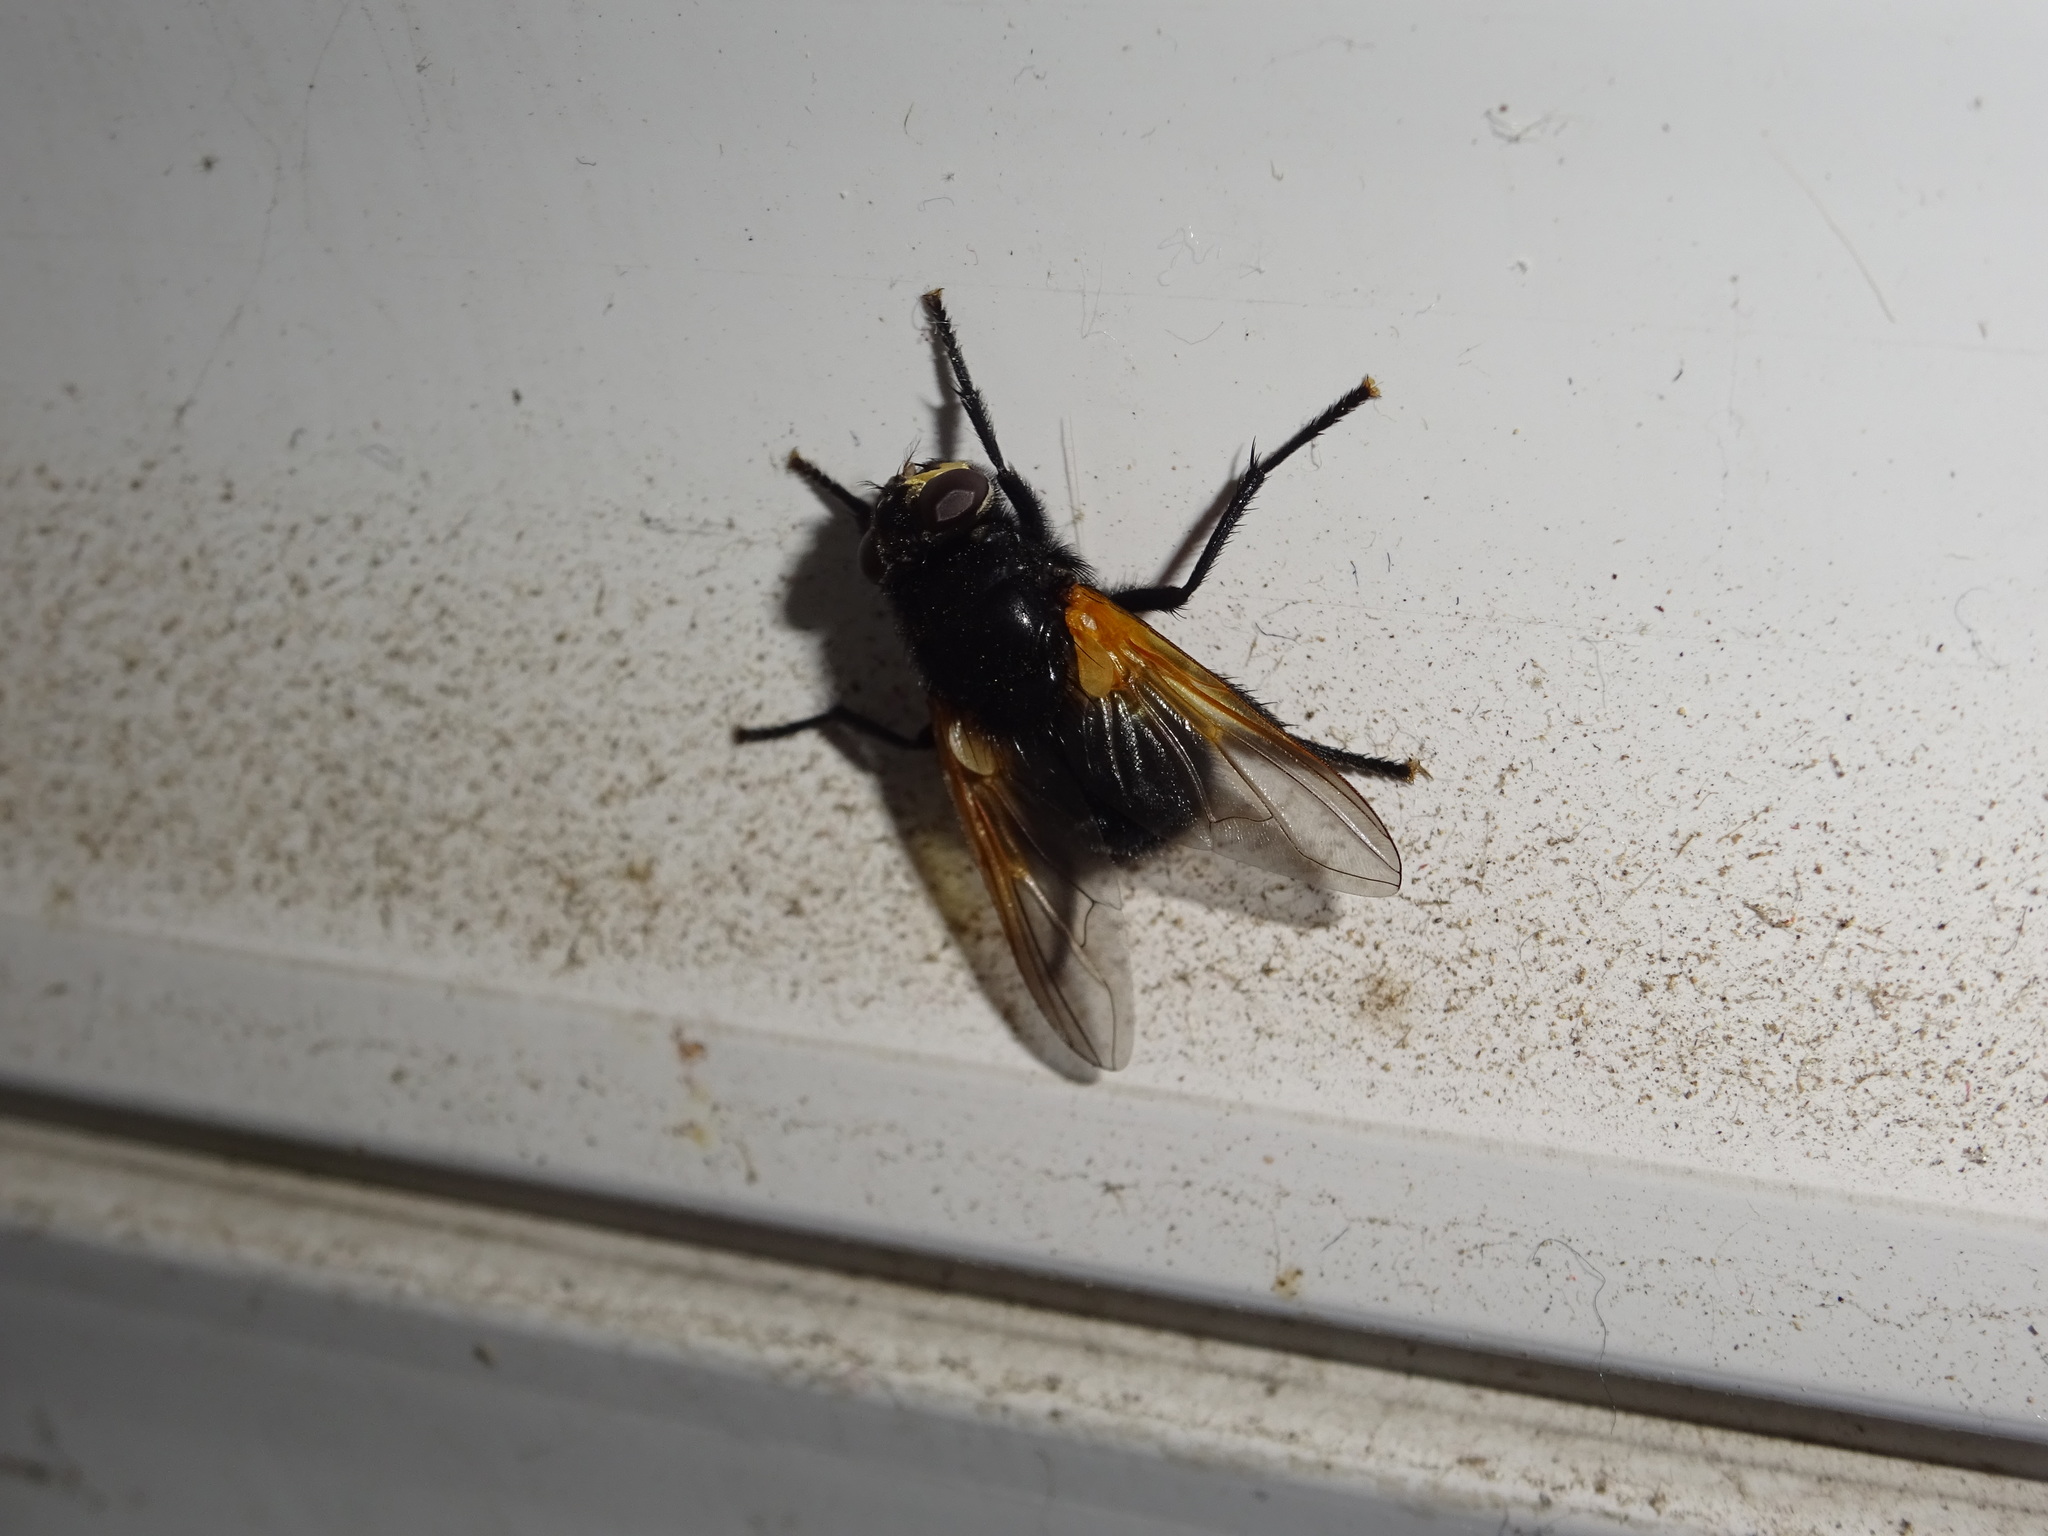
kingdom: Animalia
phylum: Arthropoda
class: Insecta
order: Diptera
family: Muscidae
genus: Mesembrina
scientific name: Mesembrina meridiana
